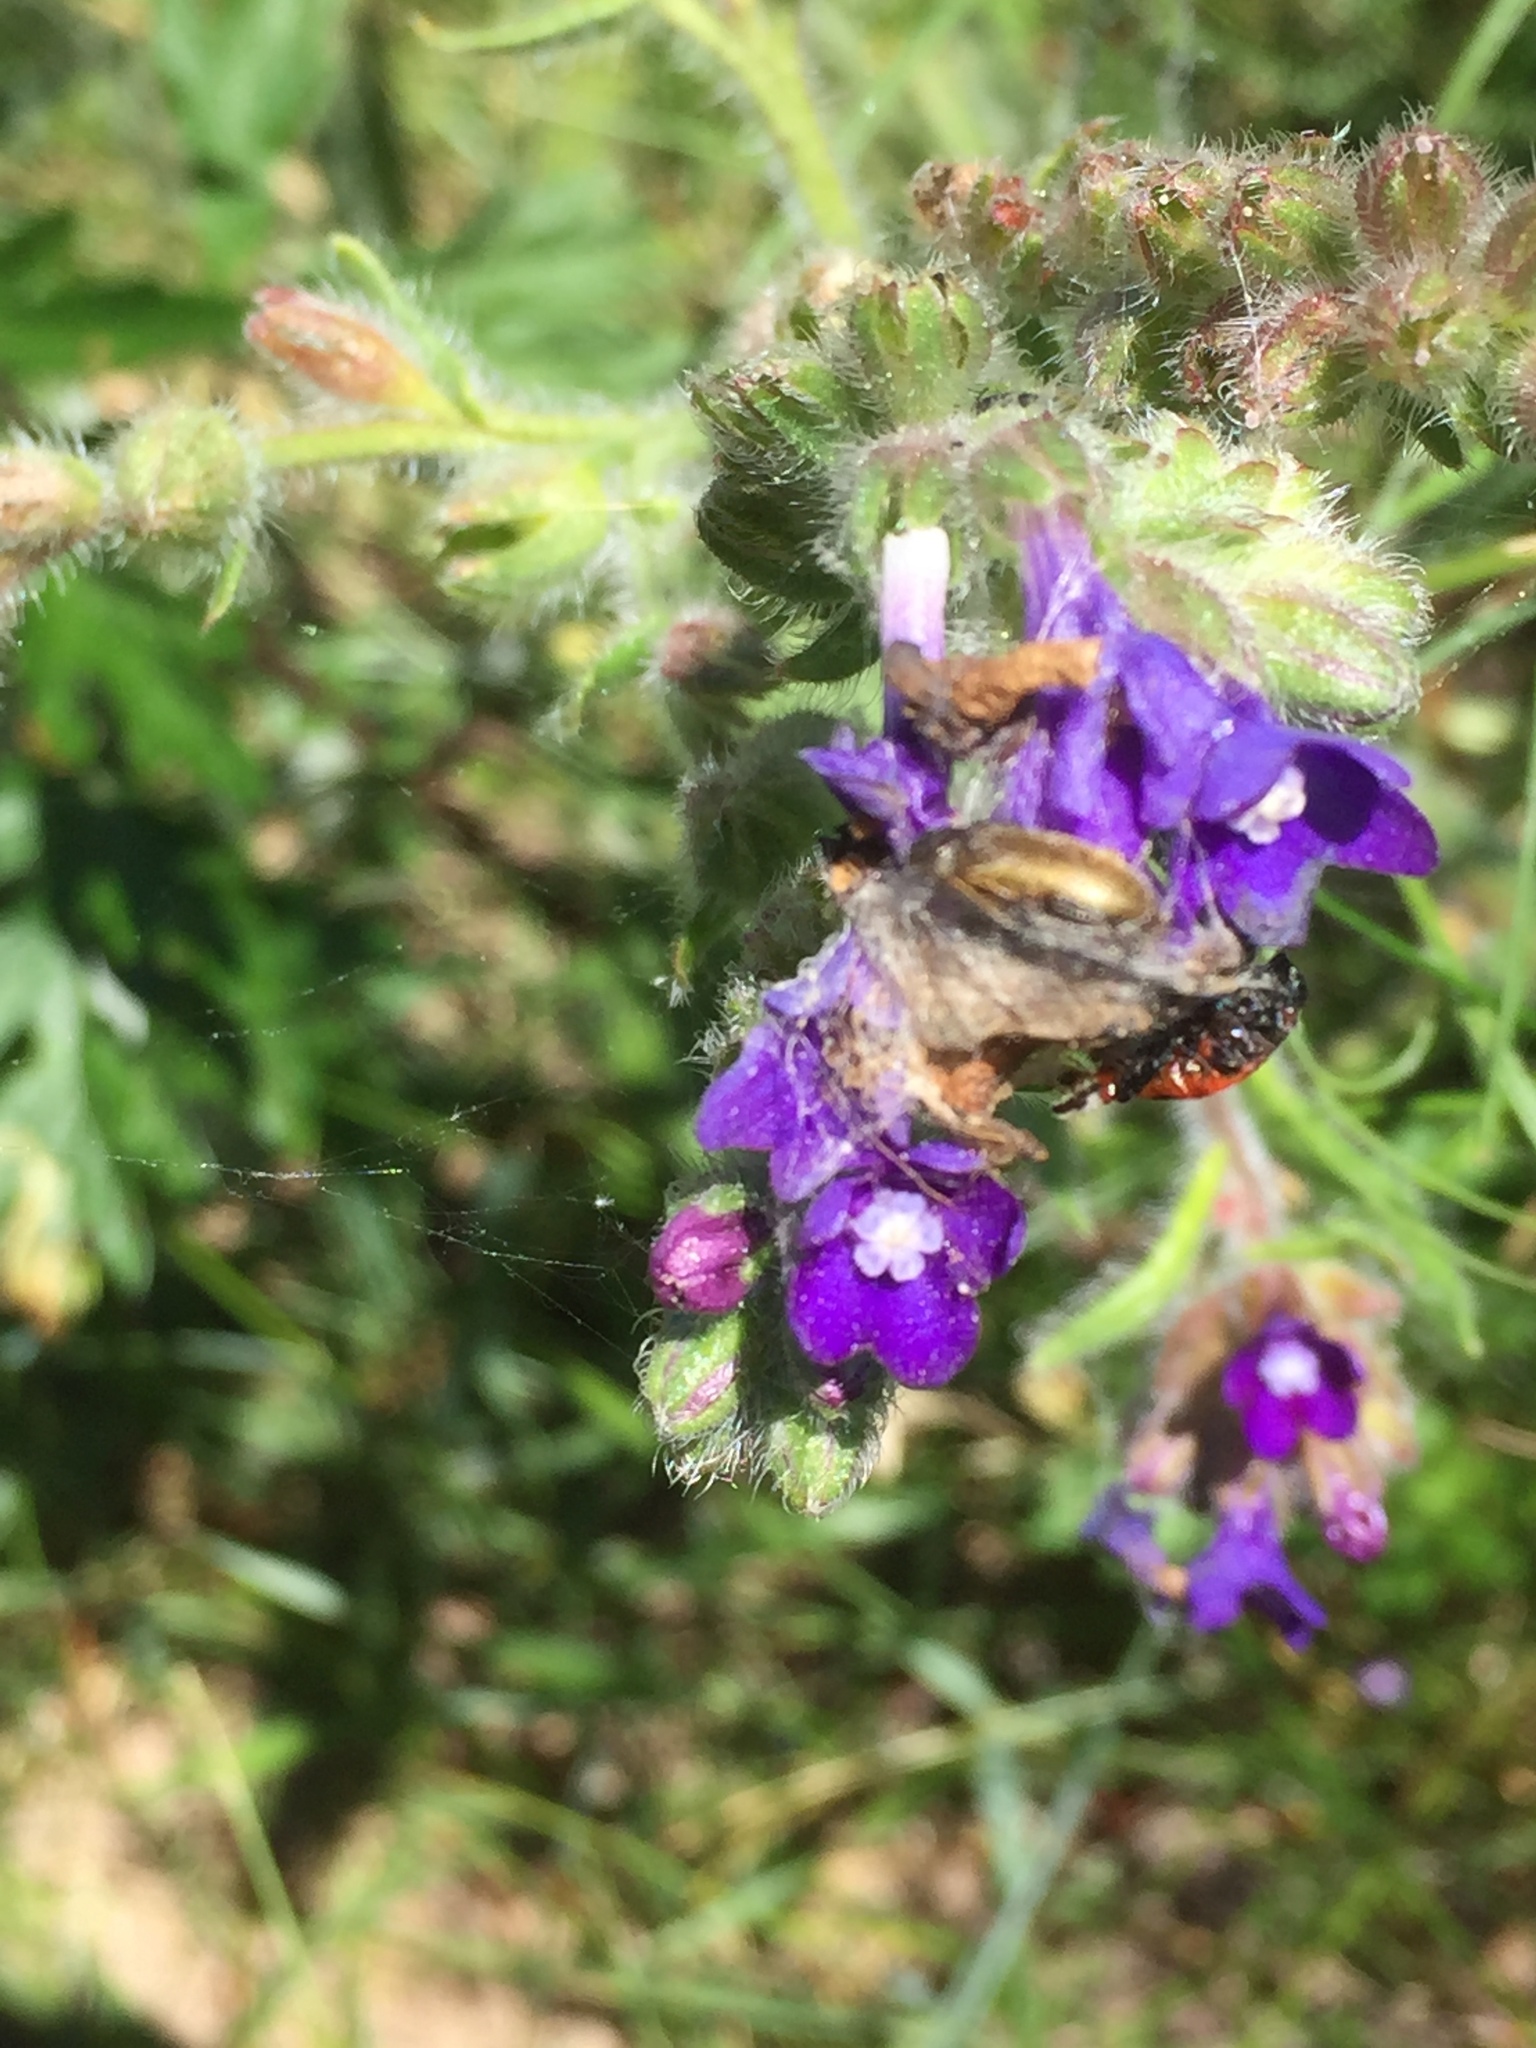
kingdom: Plantae
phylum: Tracheophyta
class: Magnoliopsida
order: Boraginales
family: Boraginaceae
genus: Anchusa
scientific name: Anchusa officinalis
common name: Alkanet
